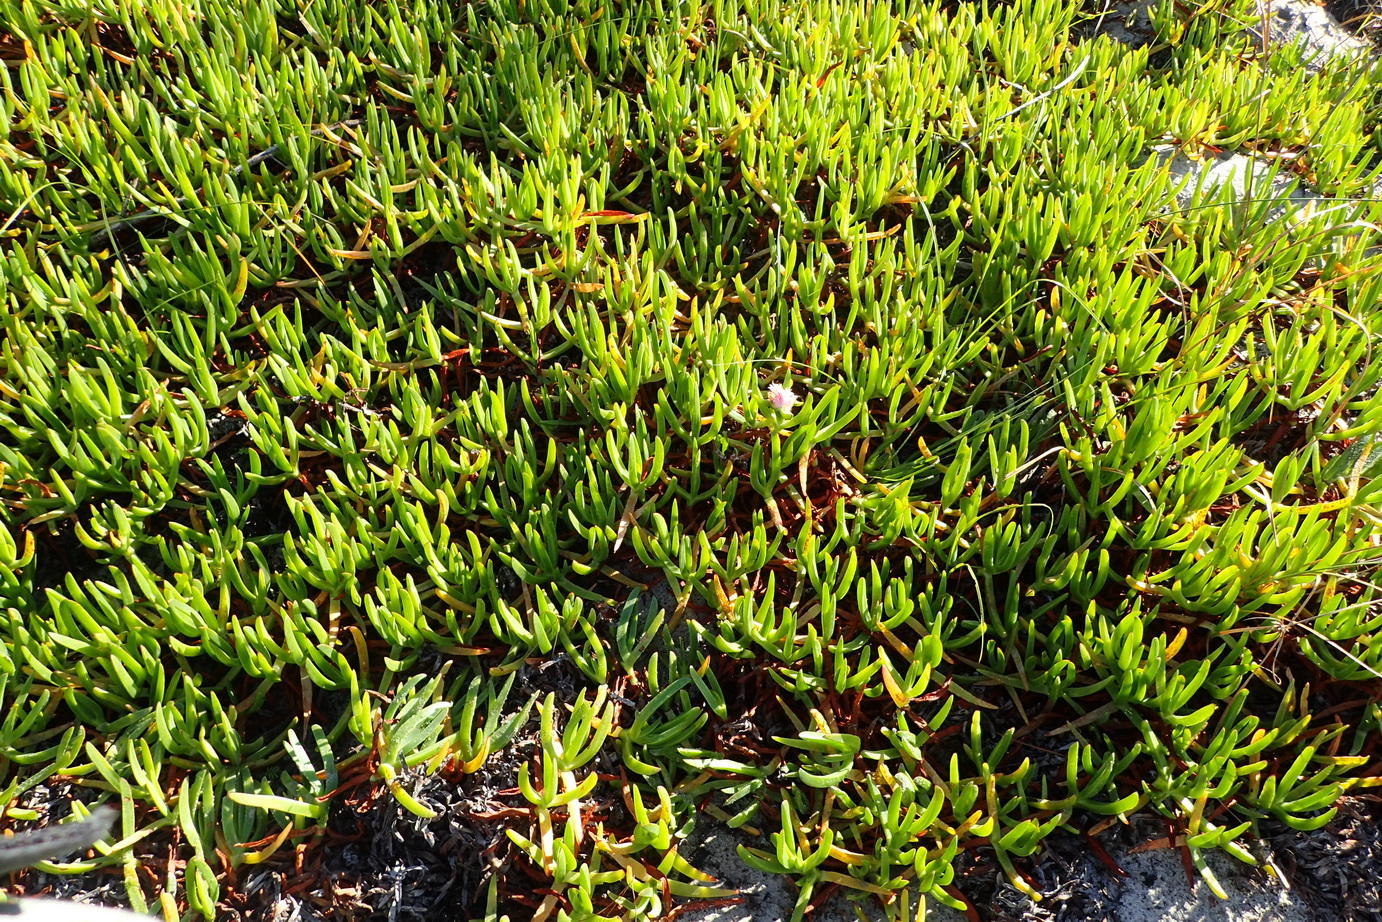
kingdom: Plantae
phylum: Tracheophyta
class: Magnoliopsida
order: Caryophyllales
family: Aizoaceae
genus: Carpobrotus
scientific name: Carpobrotus edulis
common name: Hottentot-fig
